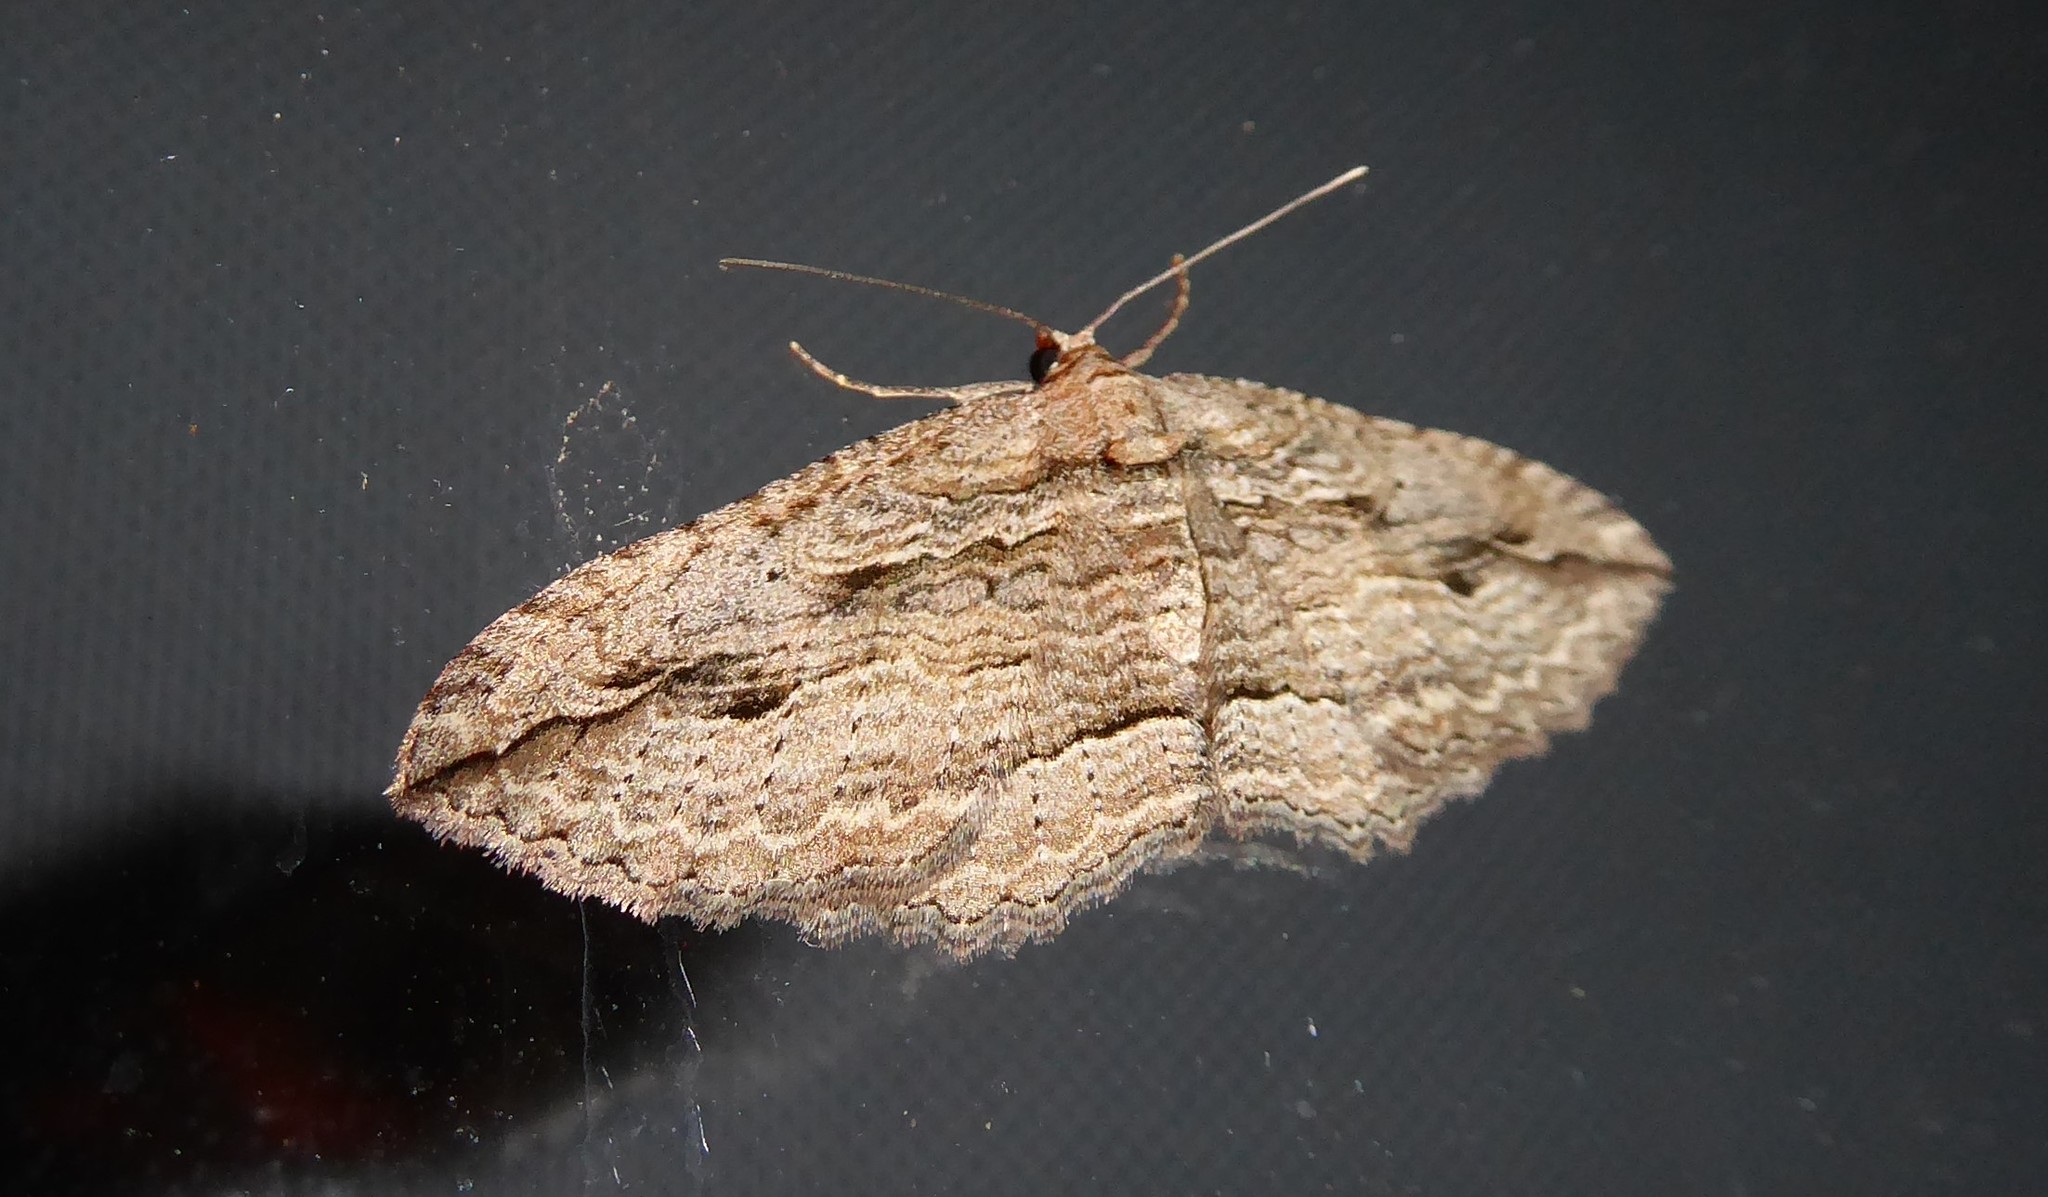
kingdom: Animalia
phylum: Arthropoda
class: Insecta
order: Lepidoptera
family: Geometridae
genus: Austrocidaria
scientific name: Austrocidaria gobiata
